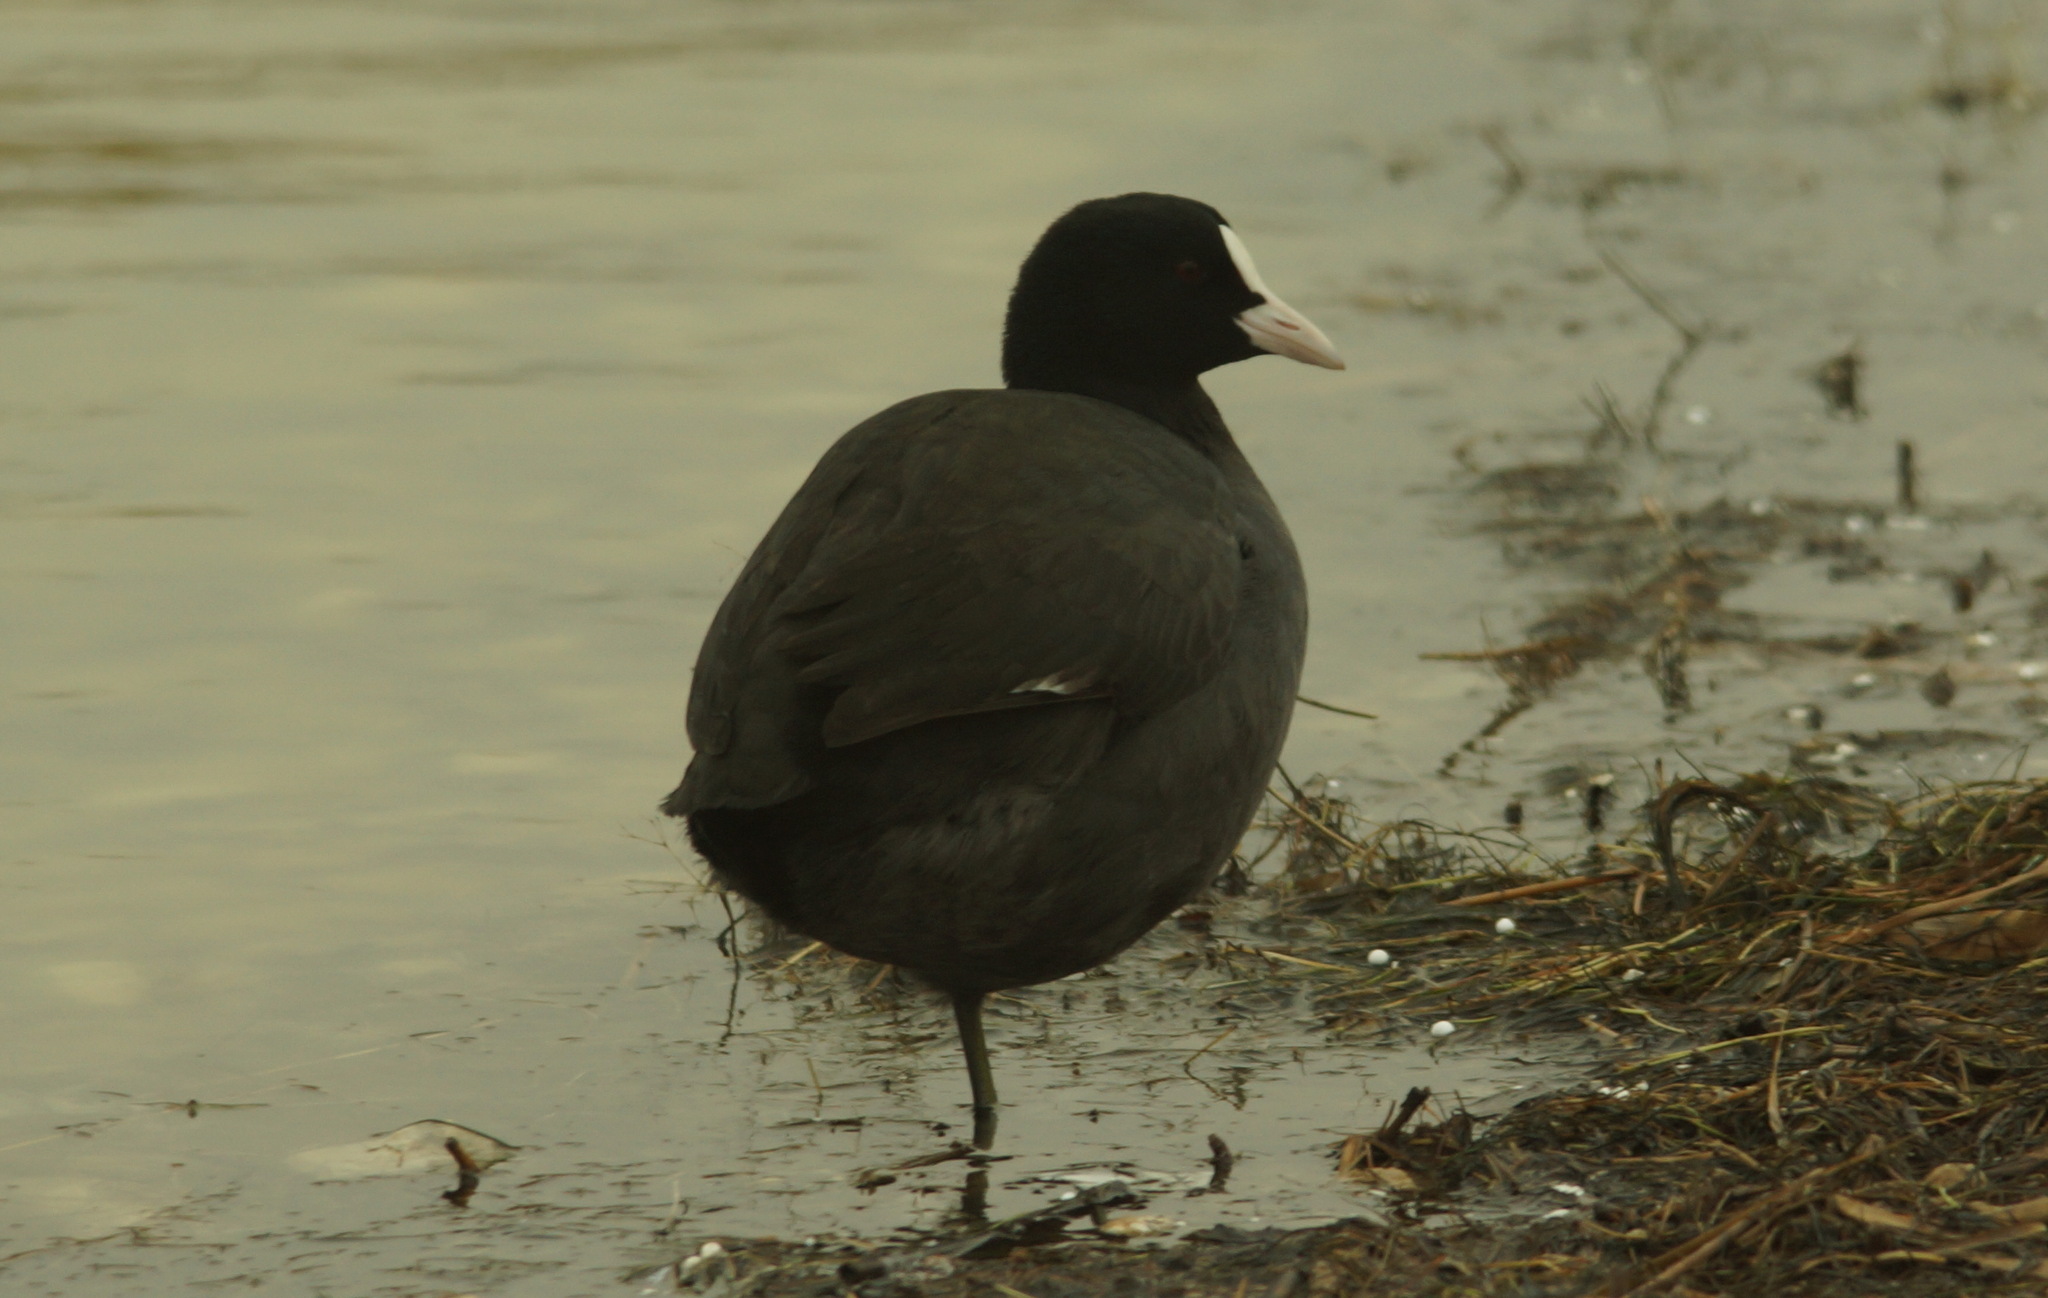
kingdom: Animalia
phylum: Chordata
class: Aves
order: Gruiformes
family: Rallidae
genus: Fulica
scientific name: Fulica atra
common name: Eurasian coot
